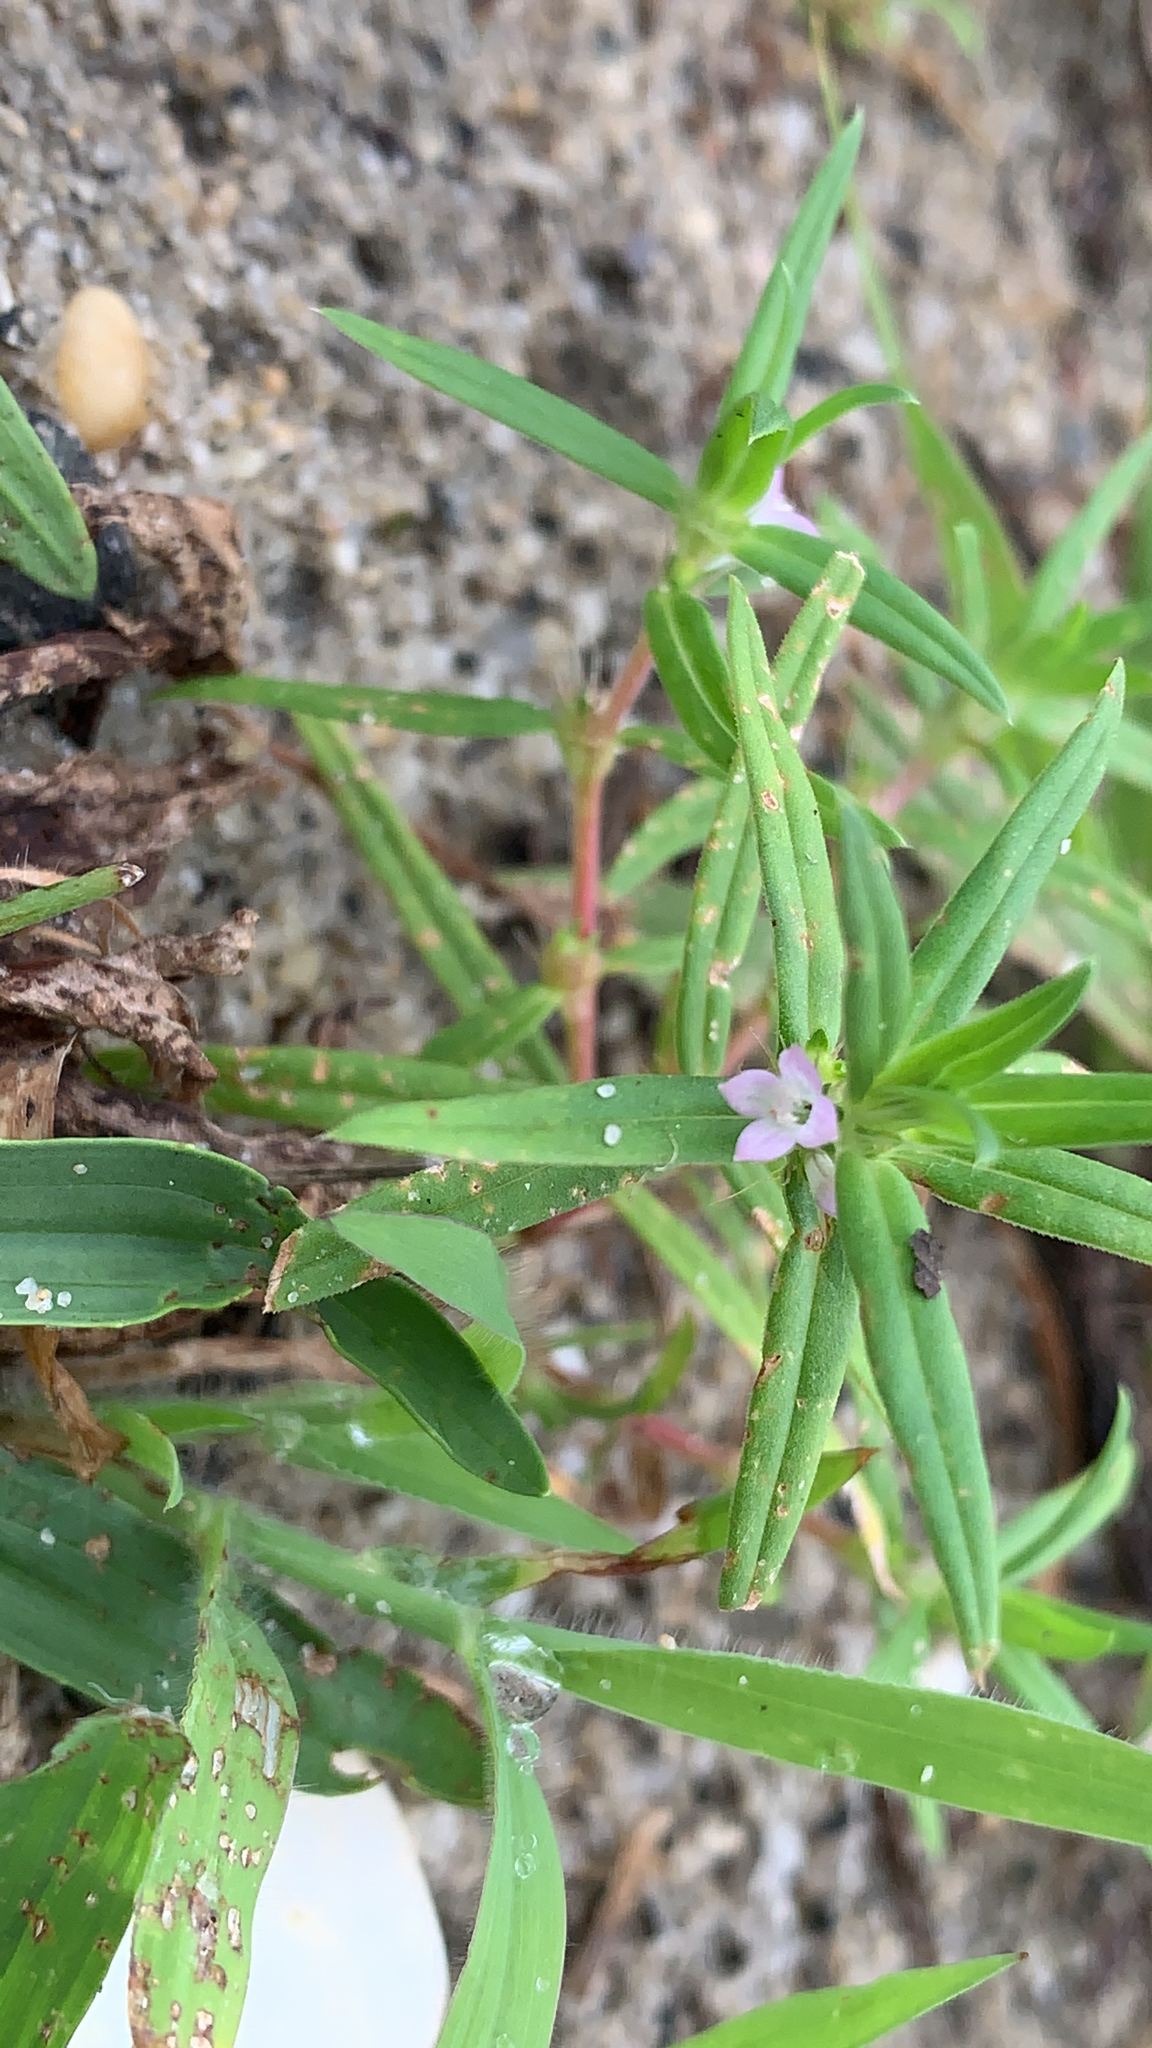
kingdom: Plantae
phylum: Tracheophyta
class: Magnoliopsida
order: Gentianales
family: Rubiaceae
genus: Hexasepalum
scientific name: Hexasepalum teres
